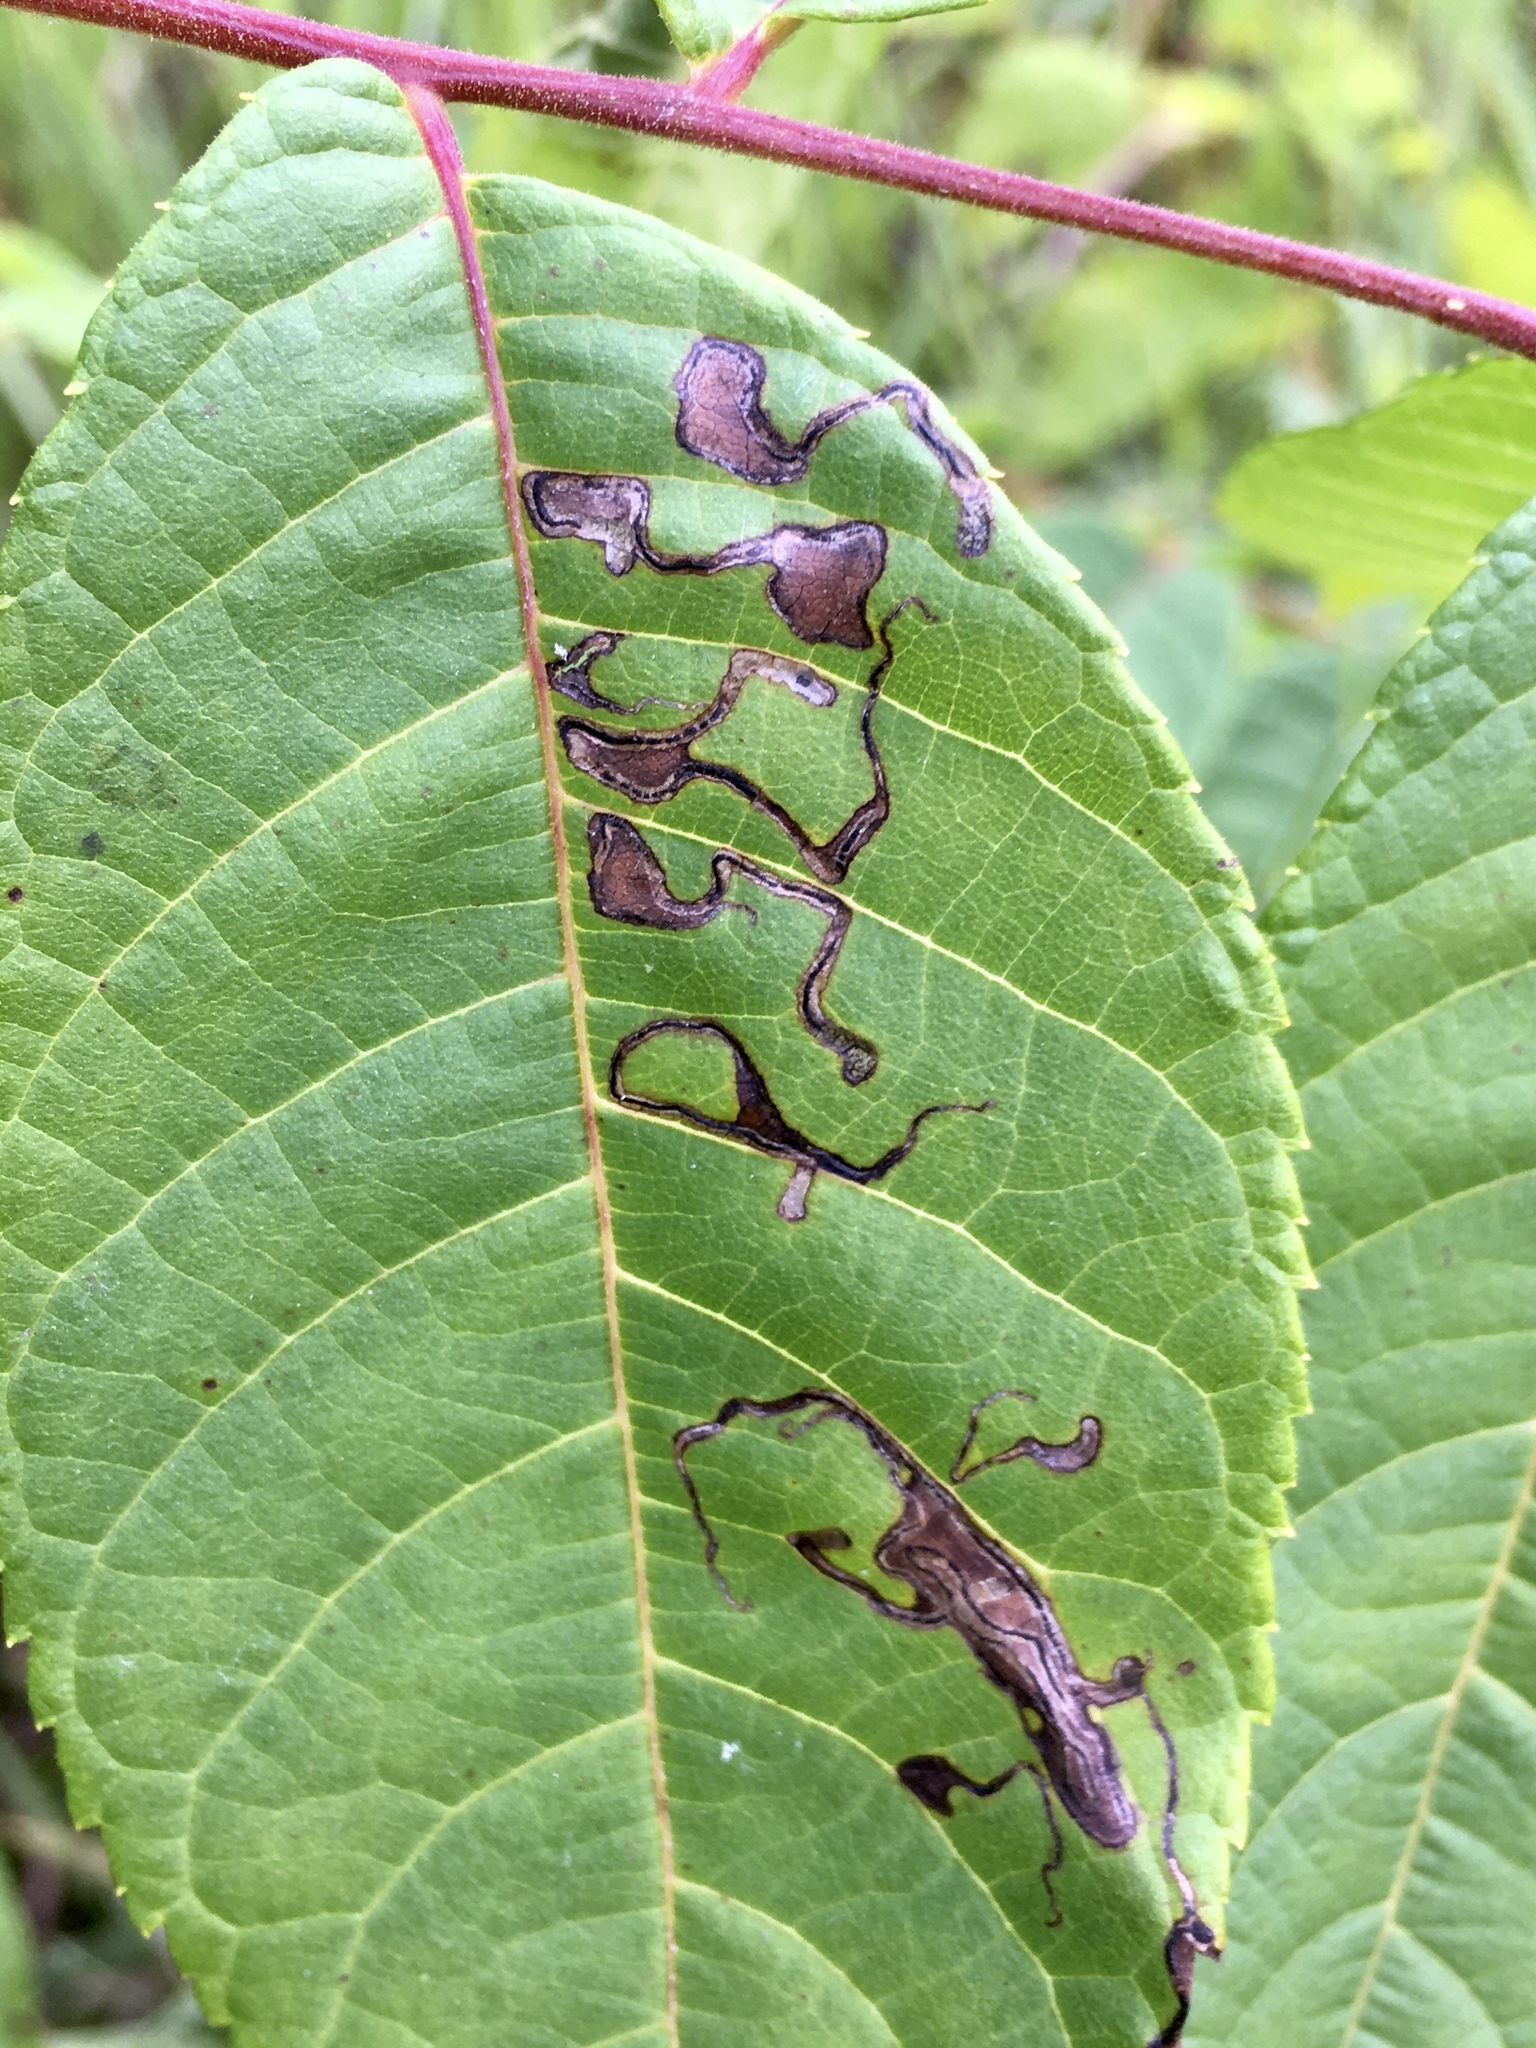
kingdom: Animalia
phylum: Arthropoda
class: Insecta
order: Lepidoptera
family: Nepticulidae
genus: Stigmella
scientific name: Stigmella juglandifoliella
